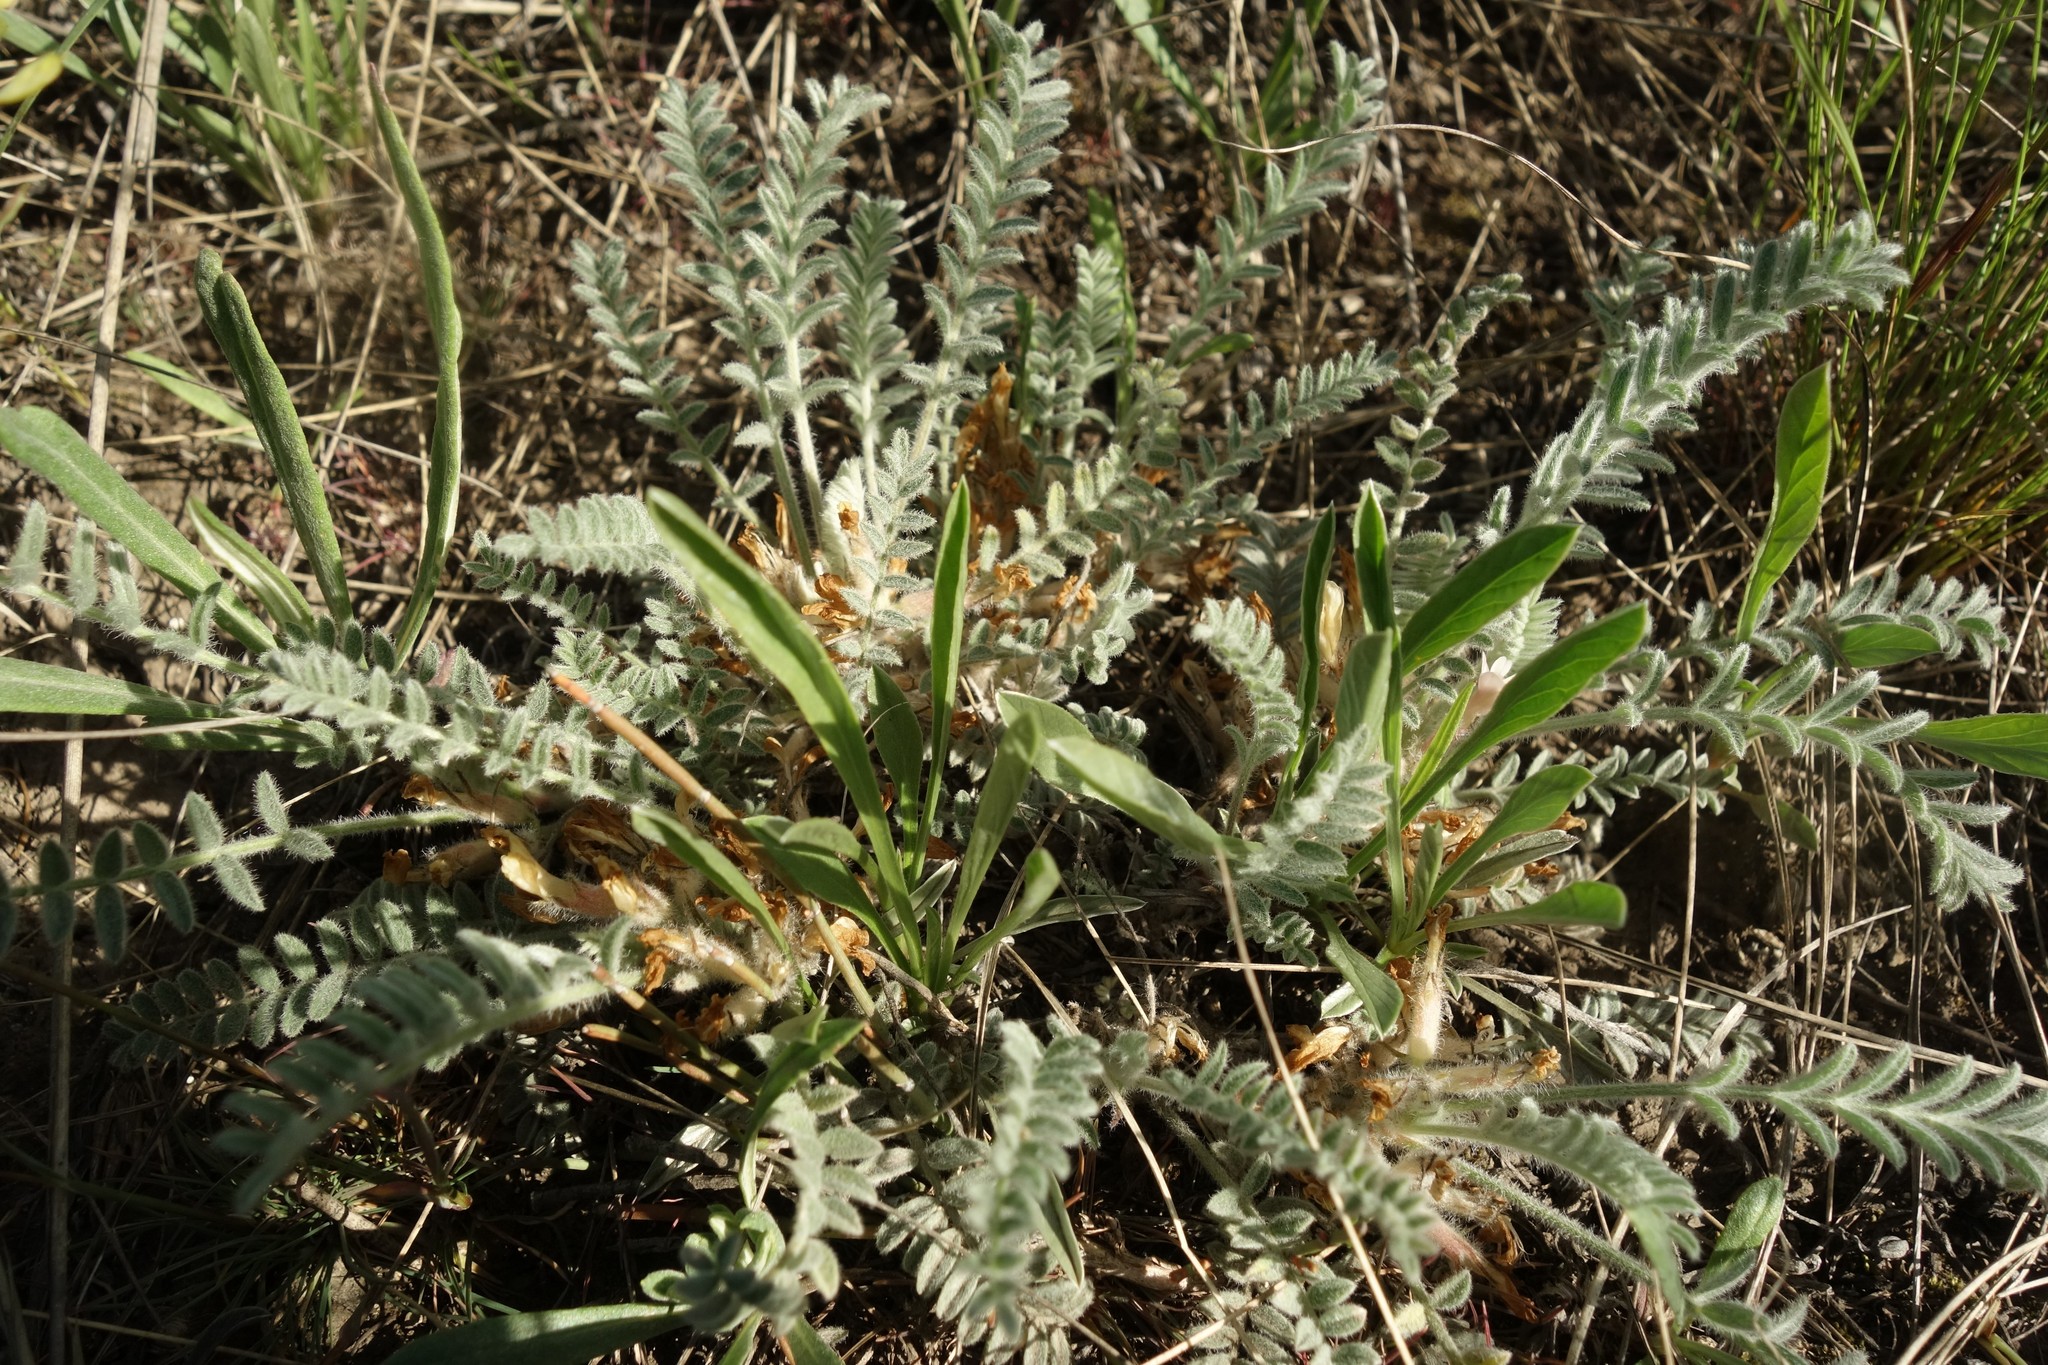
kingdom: Plantae
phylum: Tracheophyta
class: Magnoliopsida
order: Fabales
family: Fabaceae
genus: Astragalus
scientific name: Astragalus testiculatus
